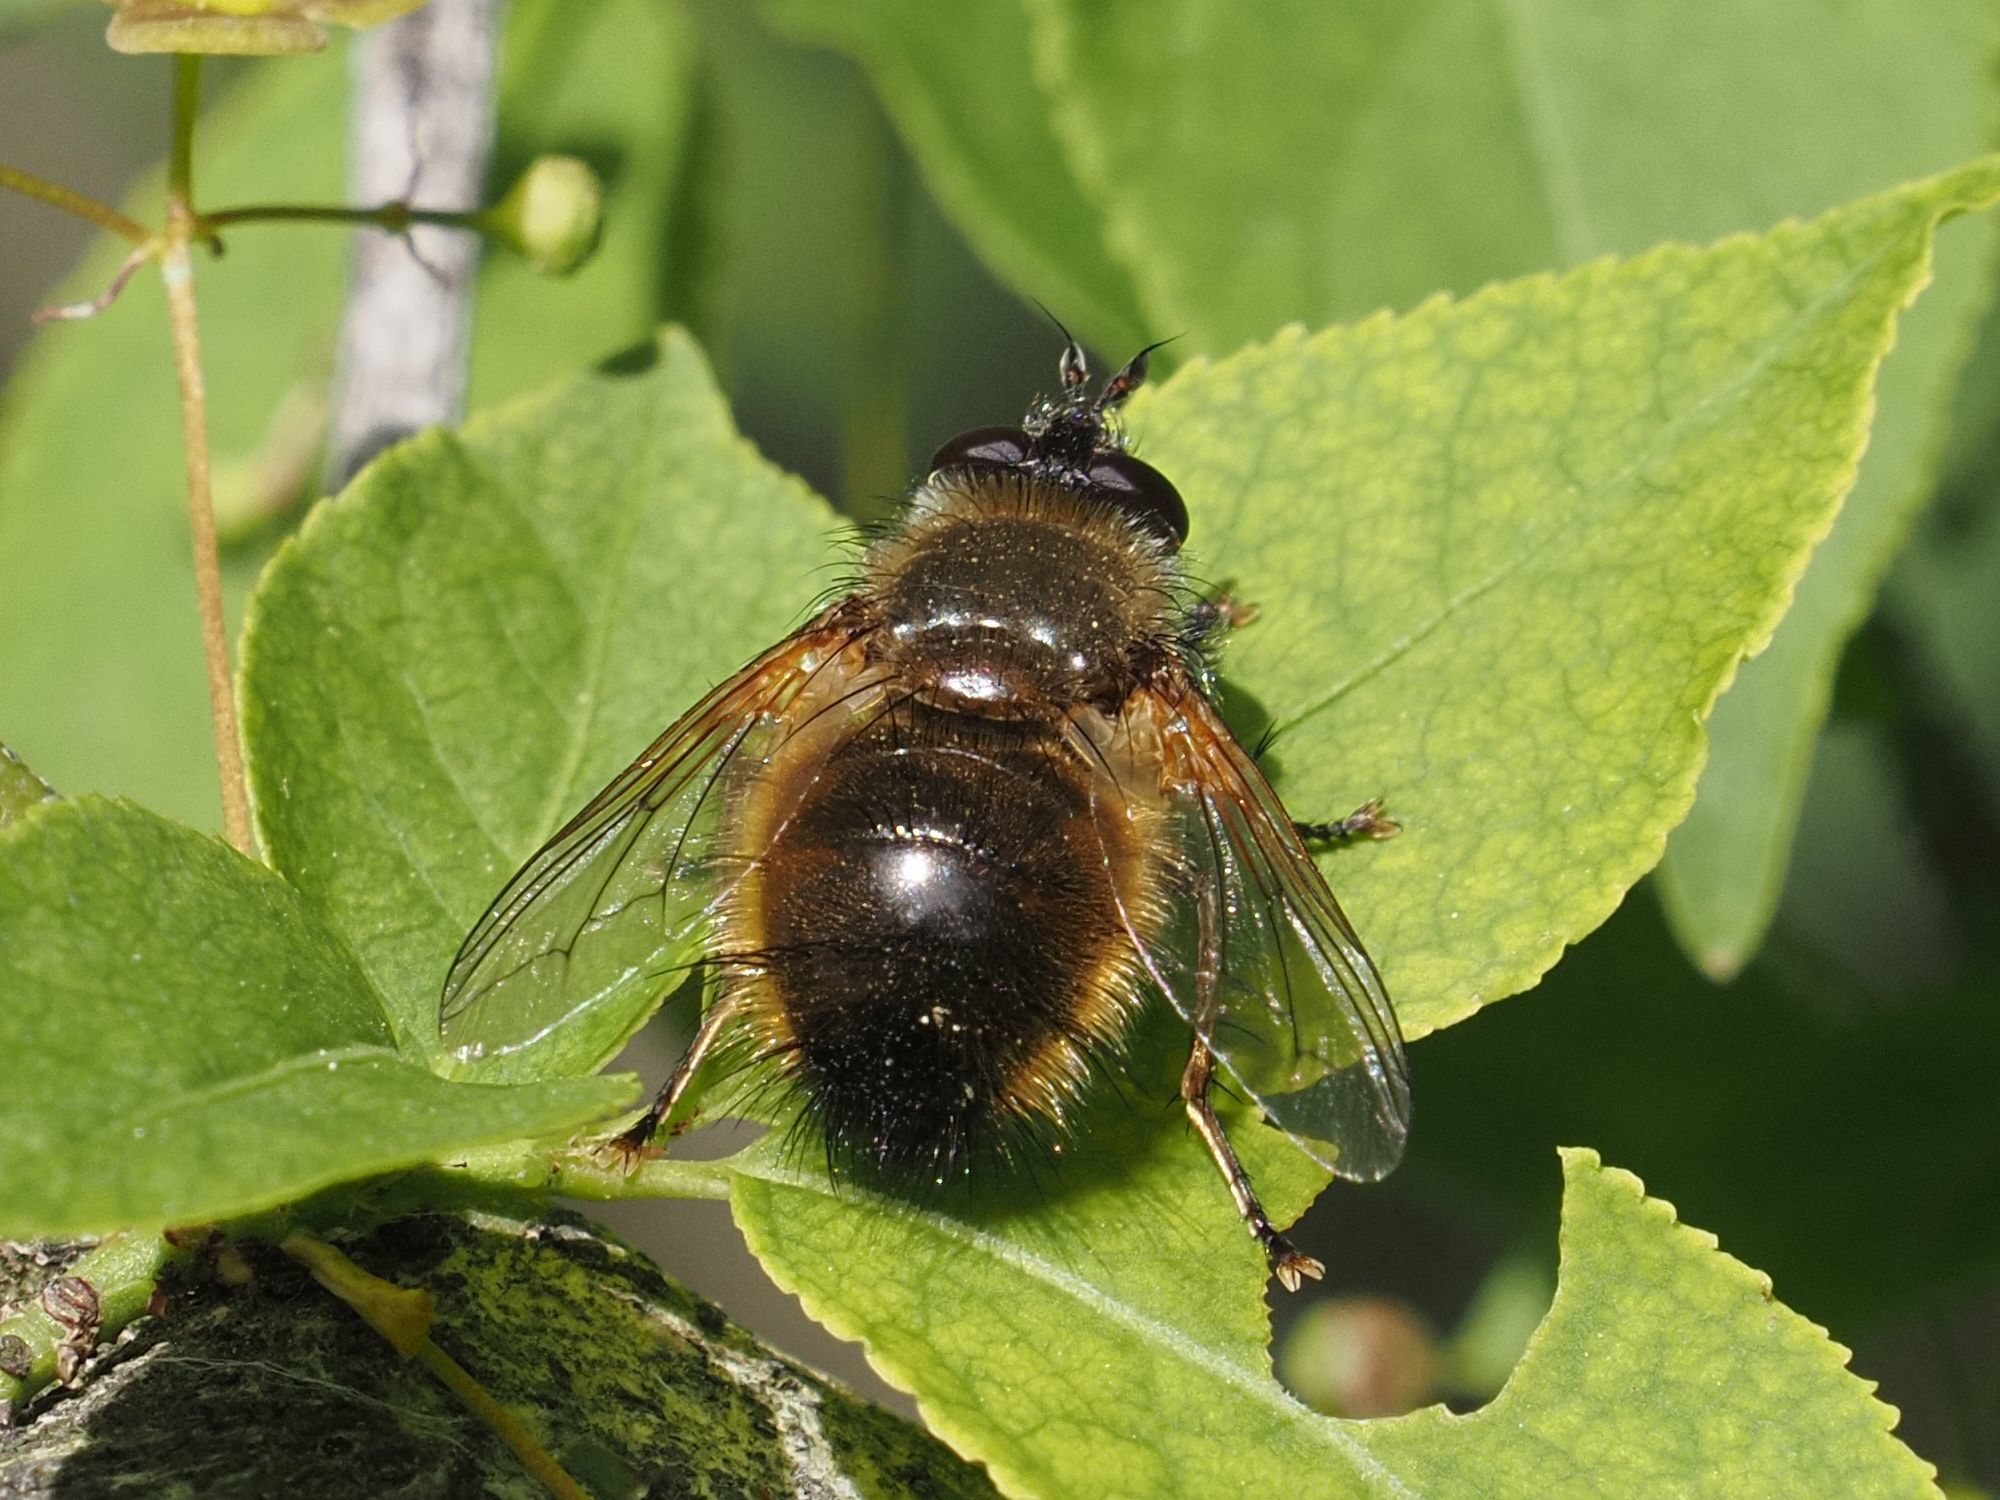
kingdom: Animalia
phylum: Arthropoda
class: Insecta
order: Diptera
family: Tachinidae
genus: Tachina
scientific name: Tachina lurida
